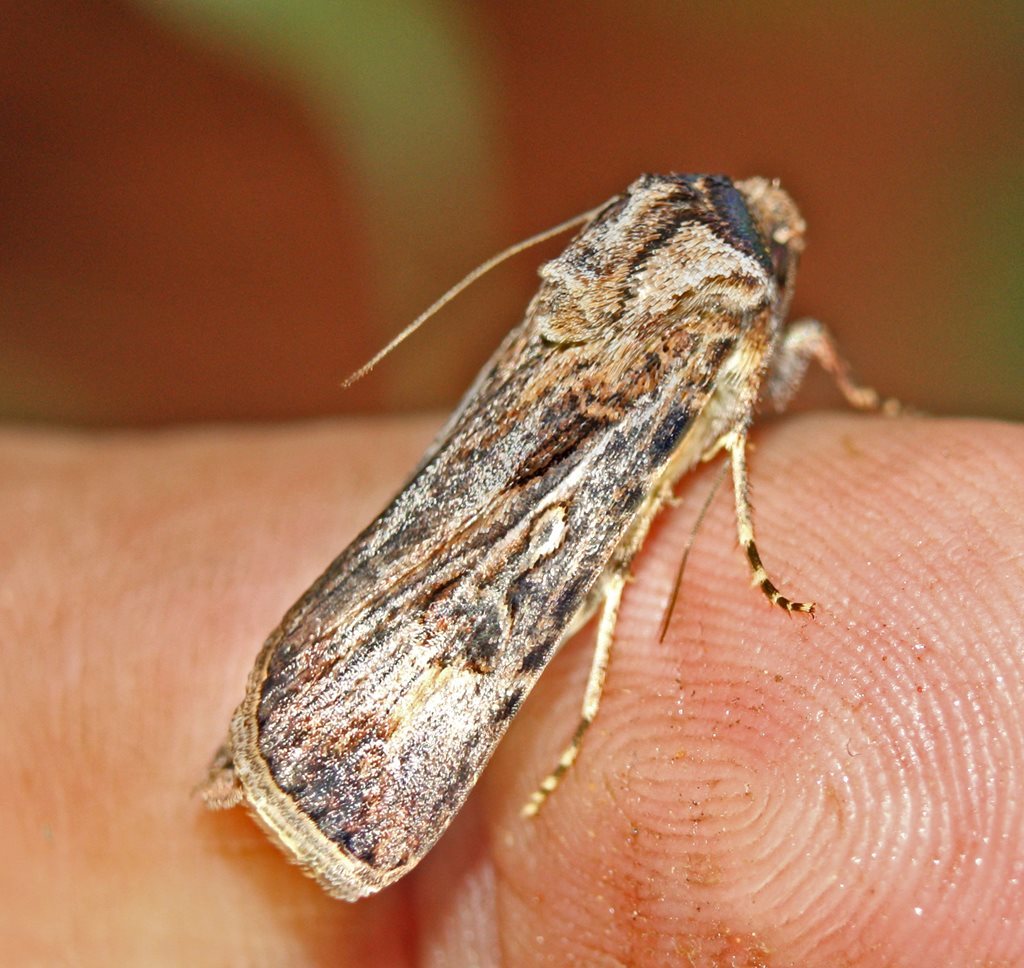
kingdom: Animalia
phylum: Arthropoda
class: Insecta
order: Lepidoptera
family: Noctuidae
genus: Agrotis
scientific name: Agrotis munda
